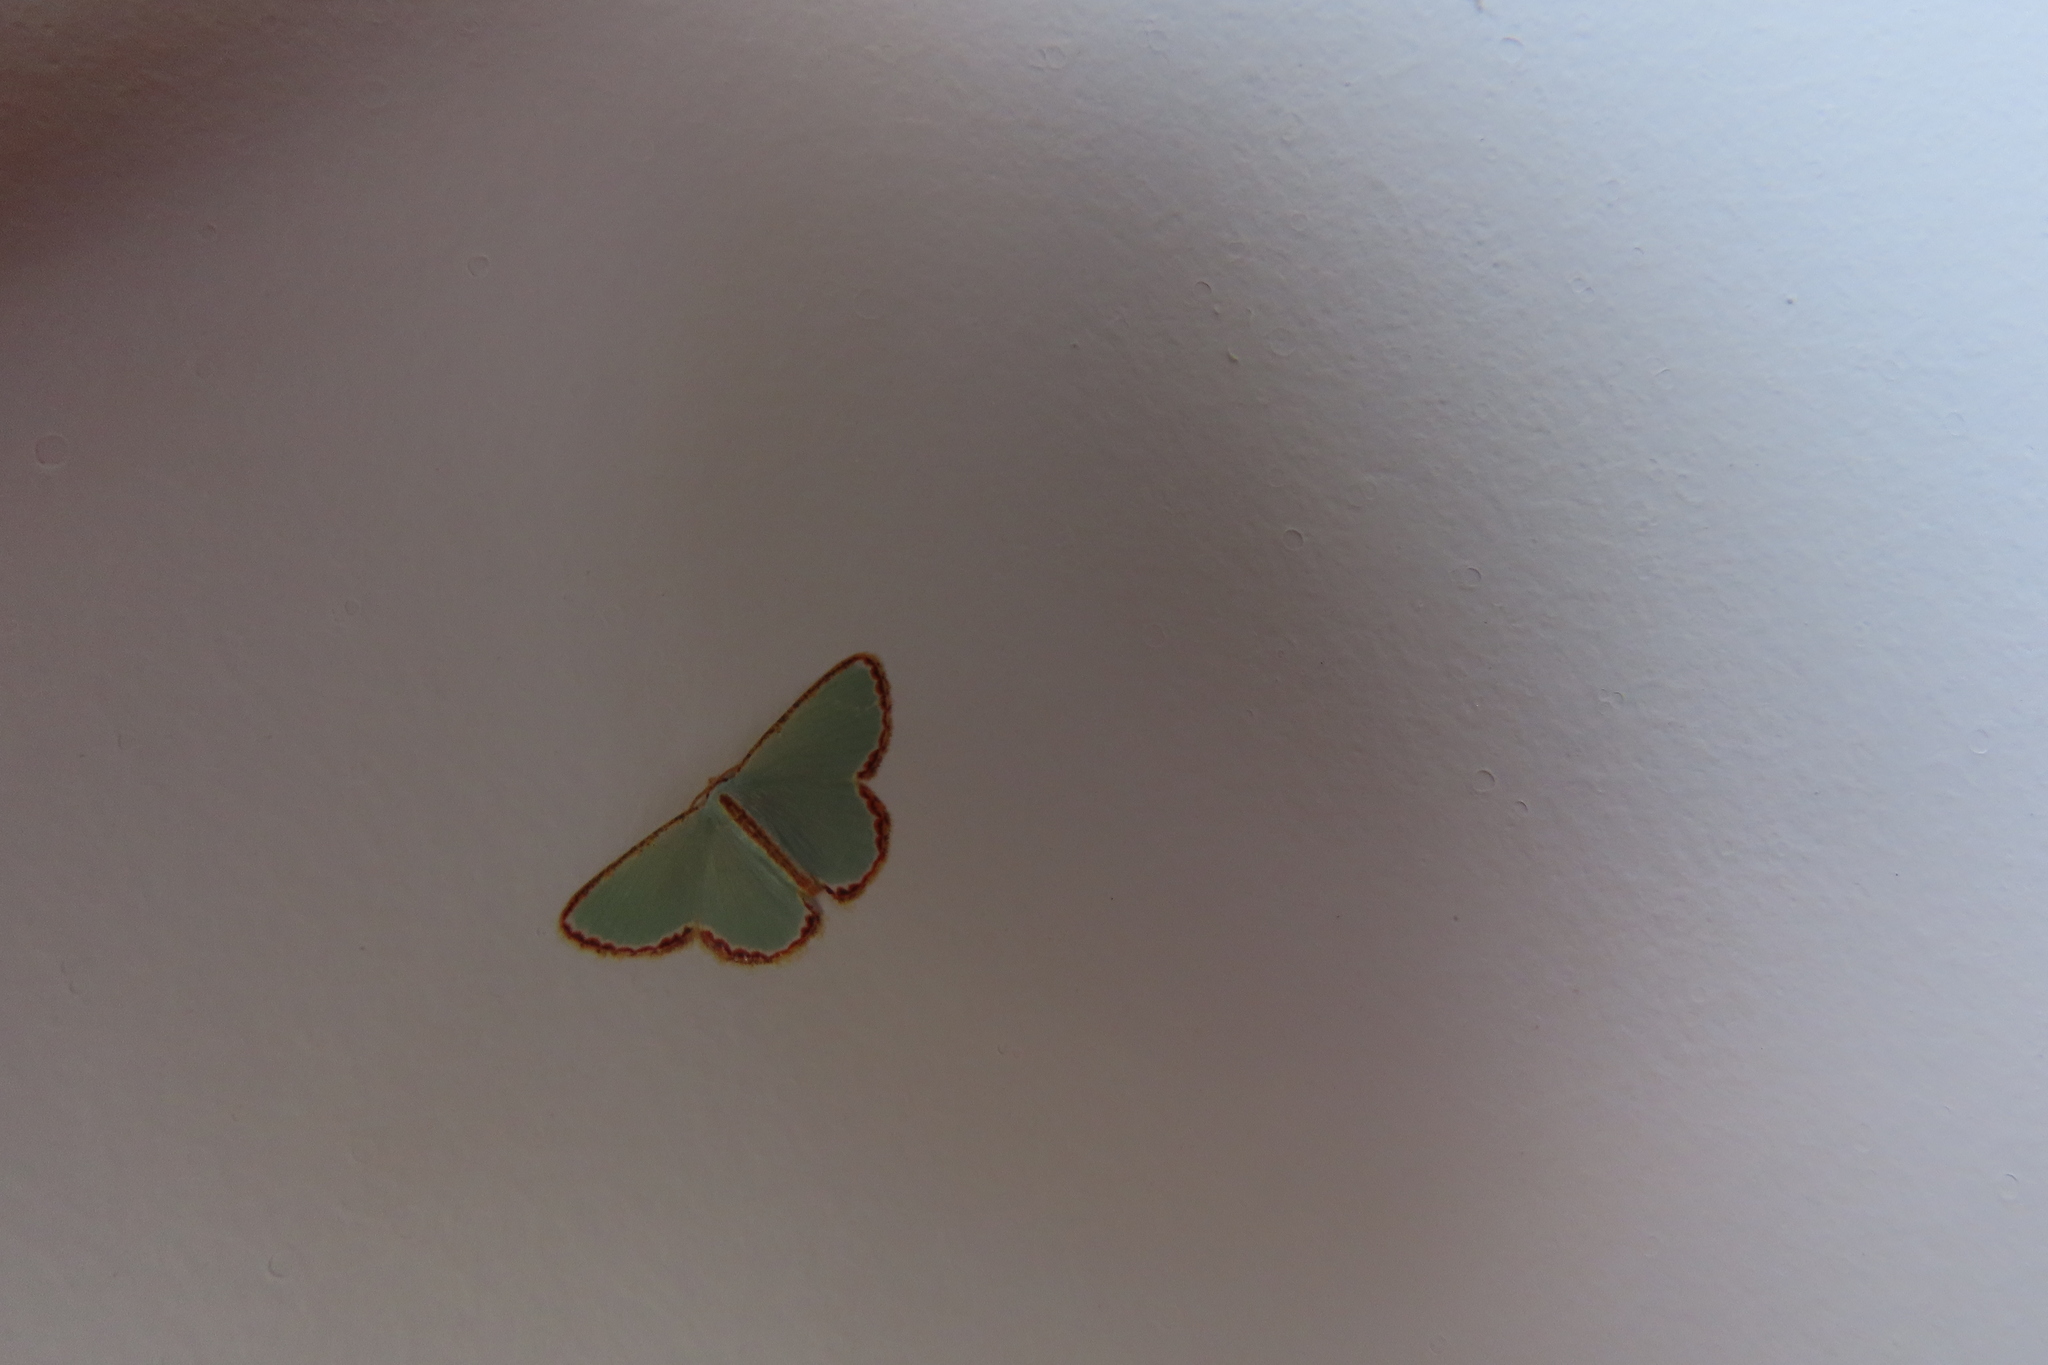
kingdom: Animalia
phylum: Arthropoda
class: Insecta
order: Lepidoptera
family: Geometridae
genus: Comostola
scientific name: Comostola pyrrhogona
